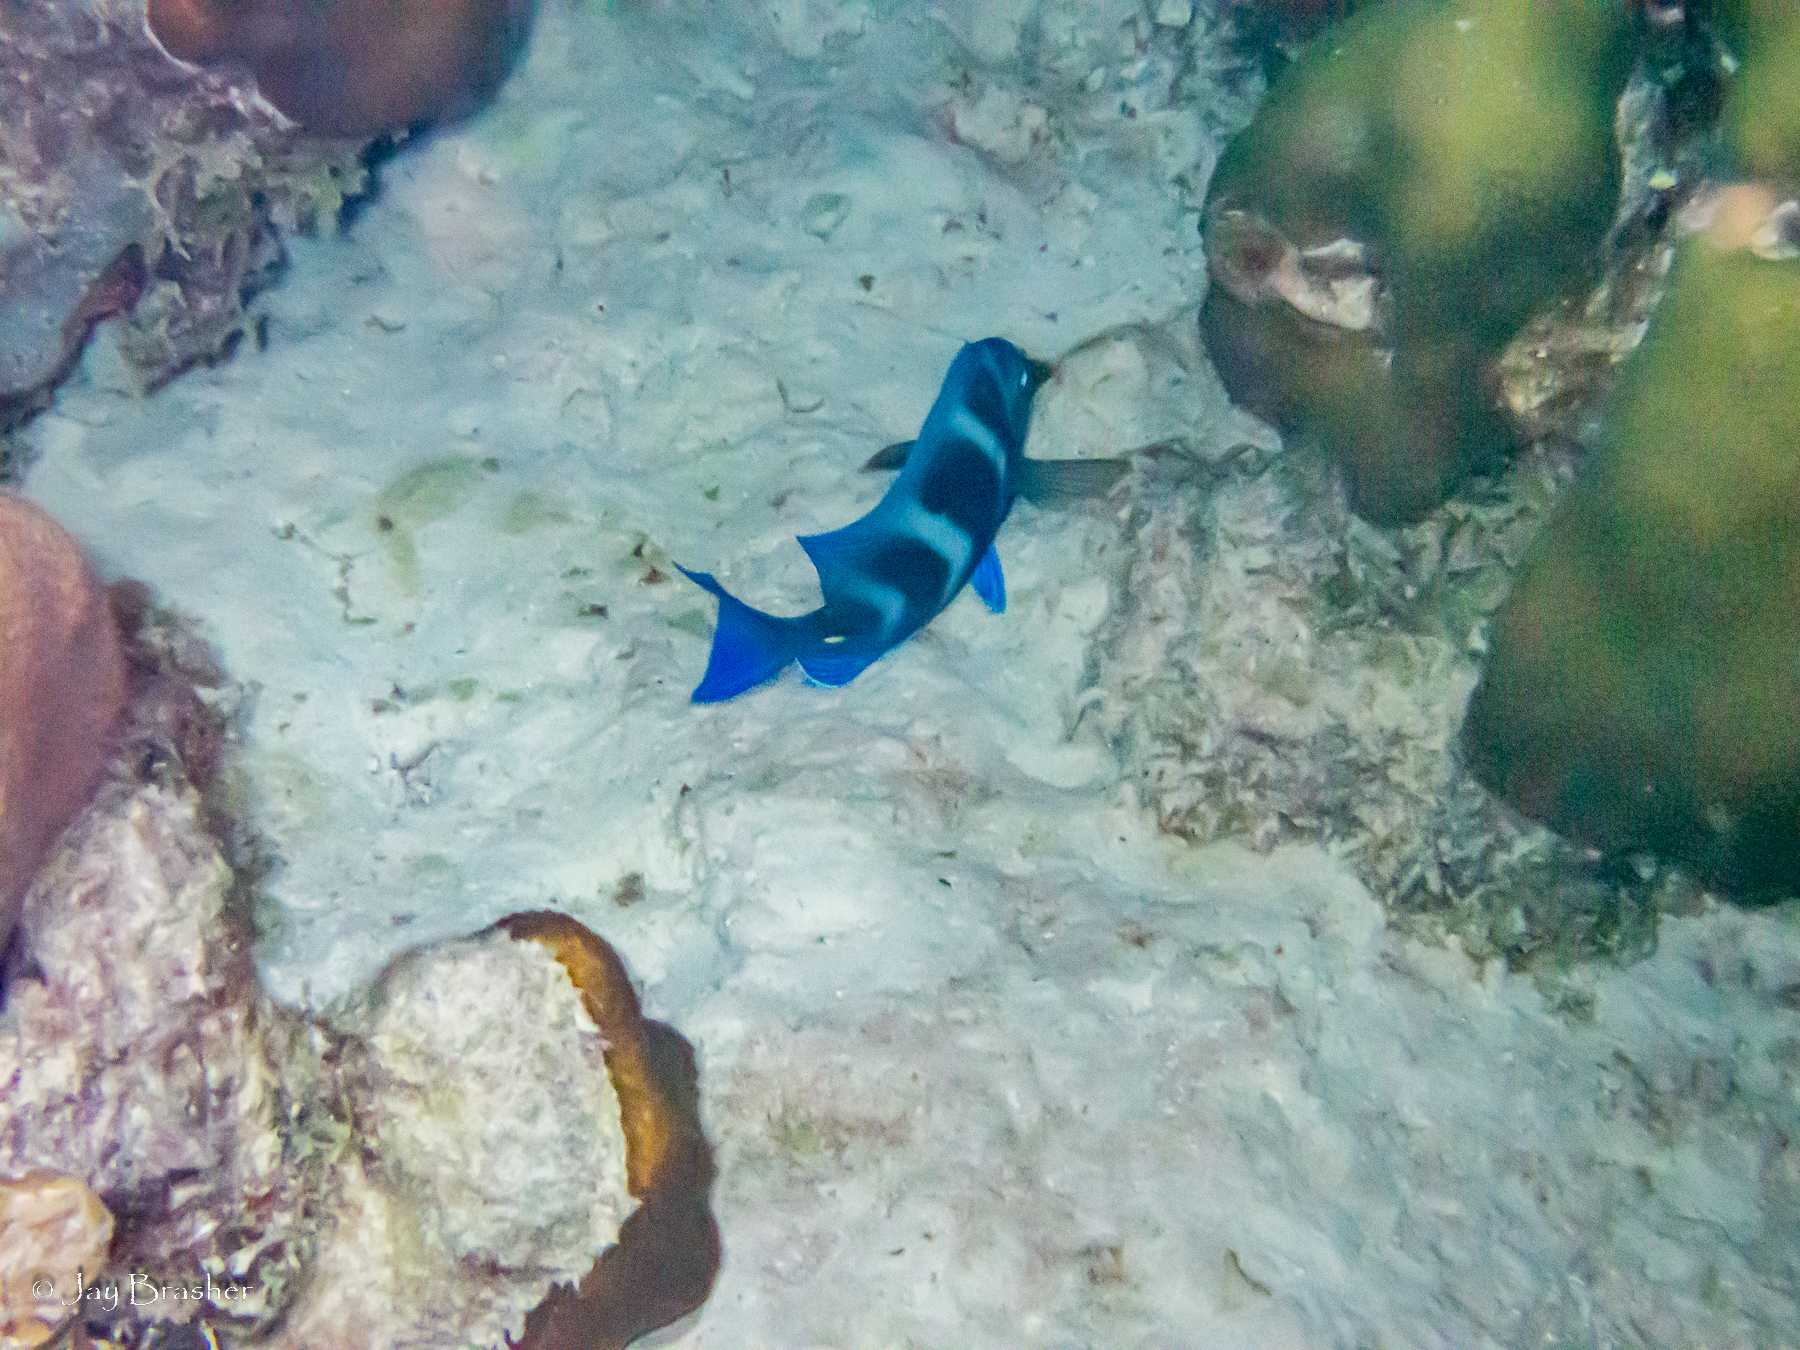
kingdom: Animalia
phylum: Chordata
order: Perciformes
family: Acanthuridae
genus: Acanthurus
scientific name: Acanthurus coeruleus
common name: Blue tang
